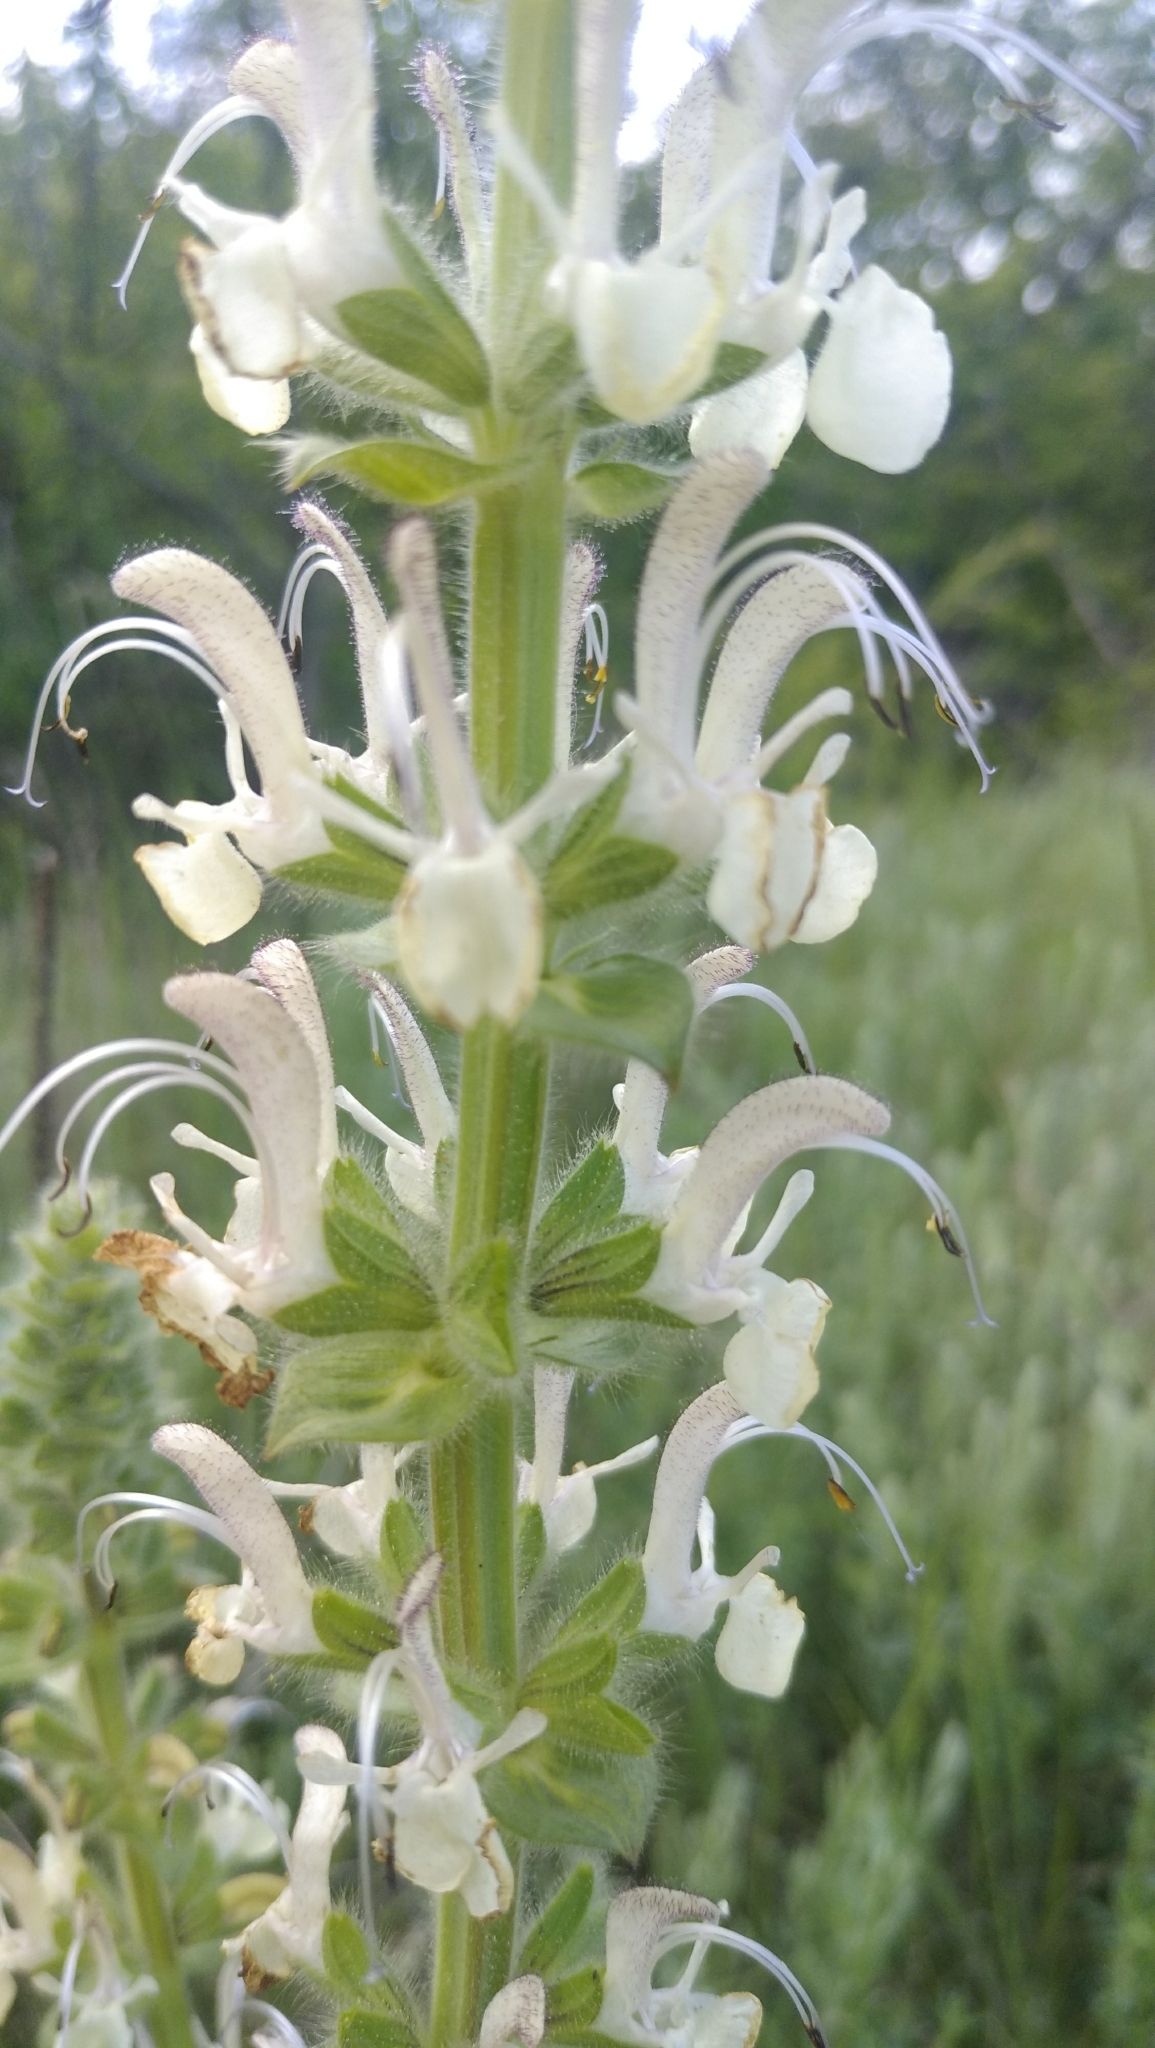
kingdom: Plantae
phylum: Tracheophyta
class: Magnoliopsida
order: Lamiales
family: Lamiaceae
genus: Salvia
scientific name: Salvia revoluta
